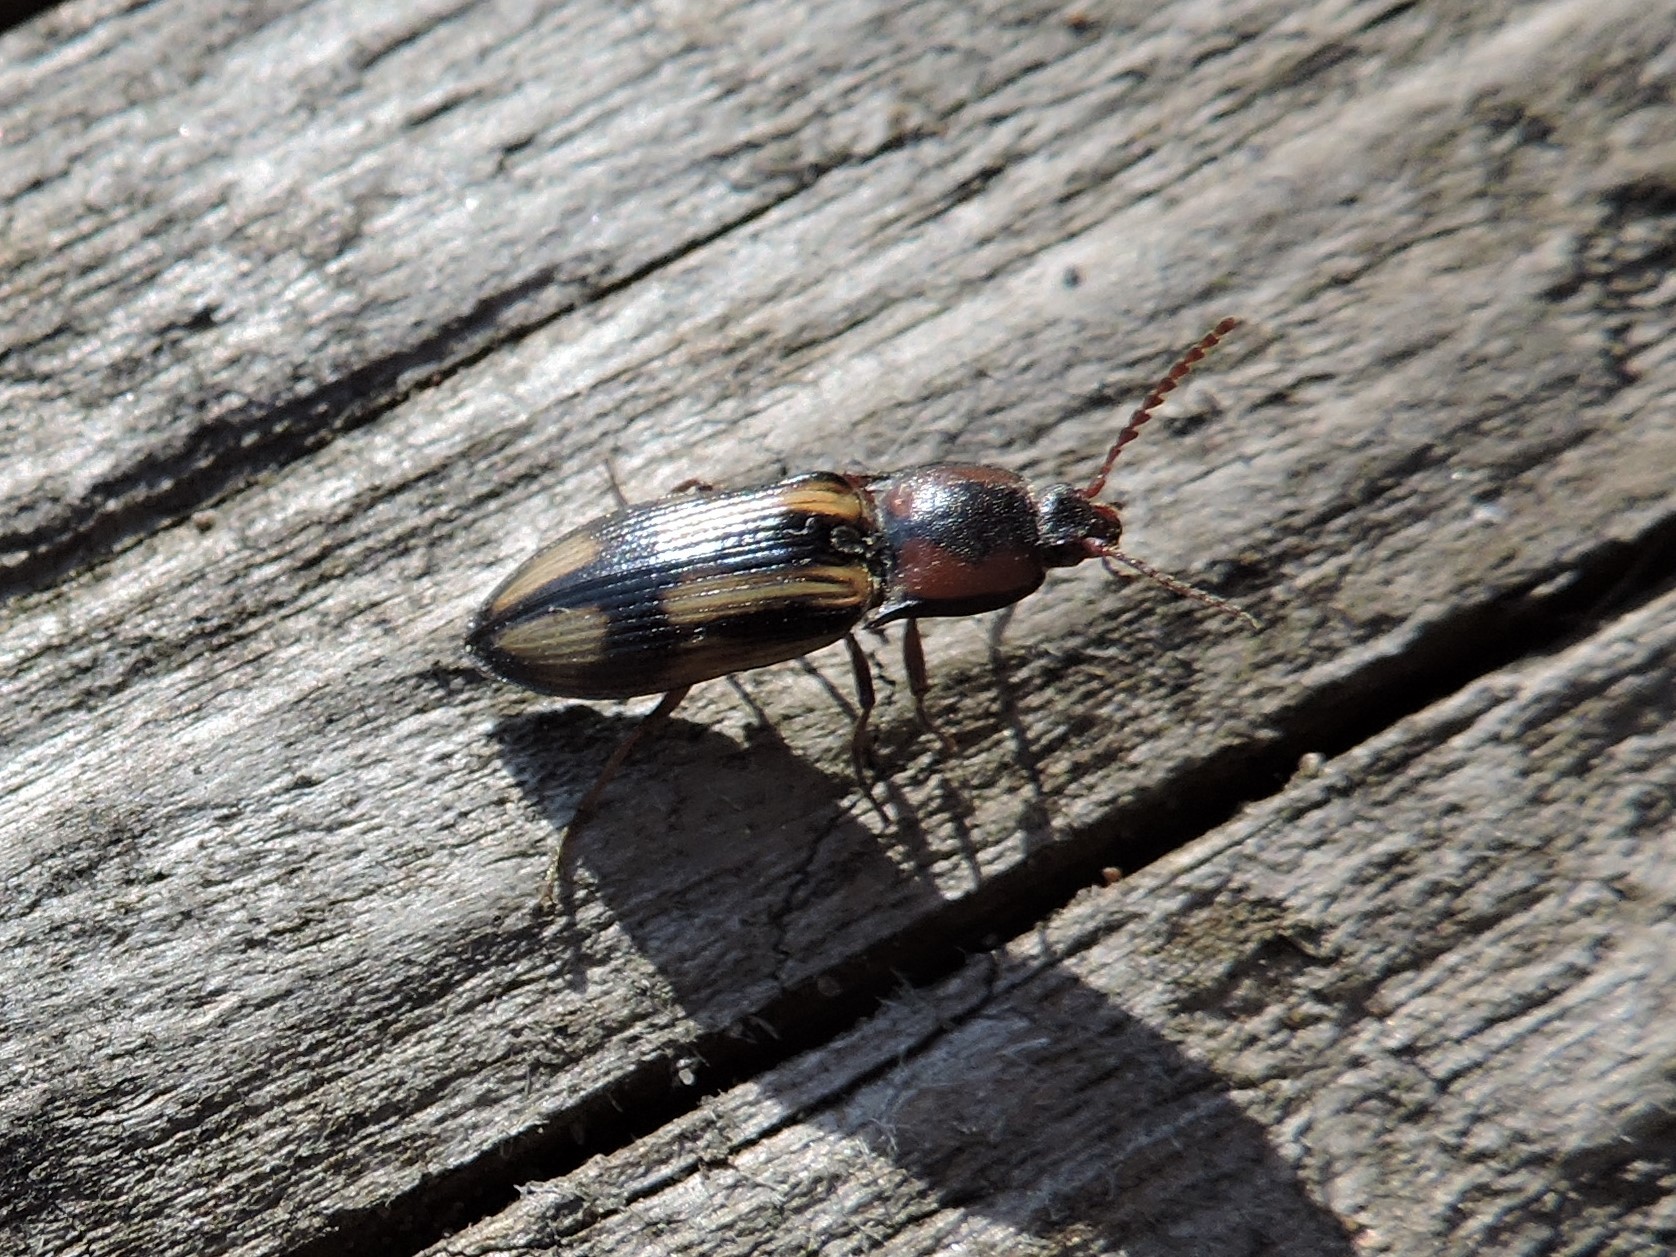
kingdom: Animalia
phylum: Arthropoda
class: Insecta
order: Coleoptera
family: Elateridae
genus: Selatosomus
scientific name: Selatosomus cruciatus
